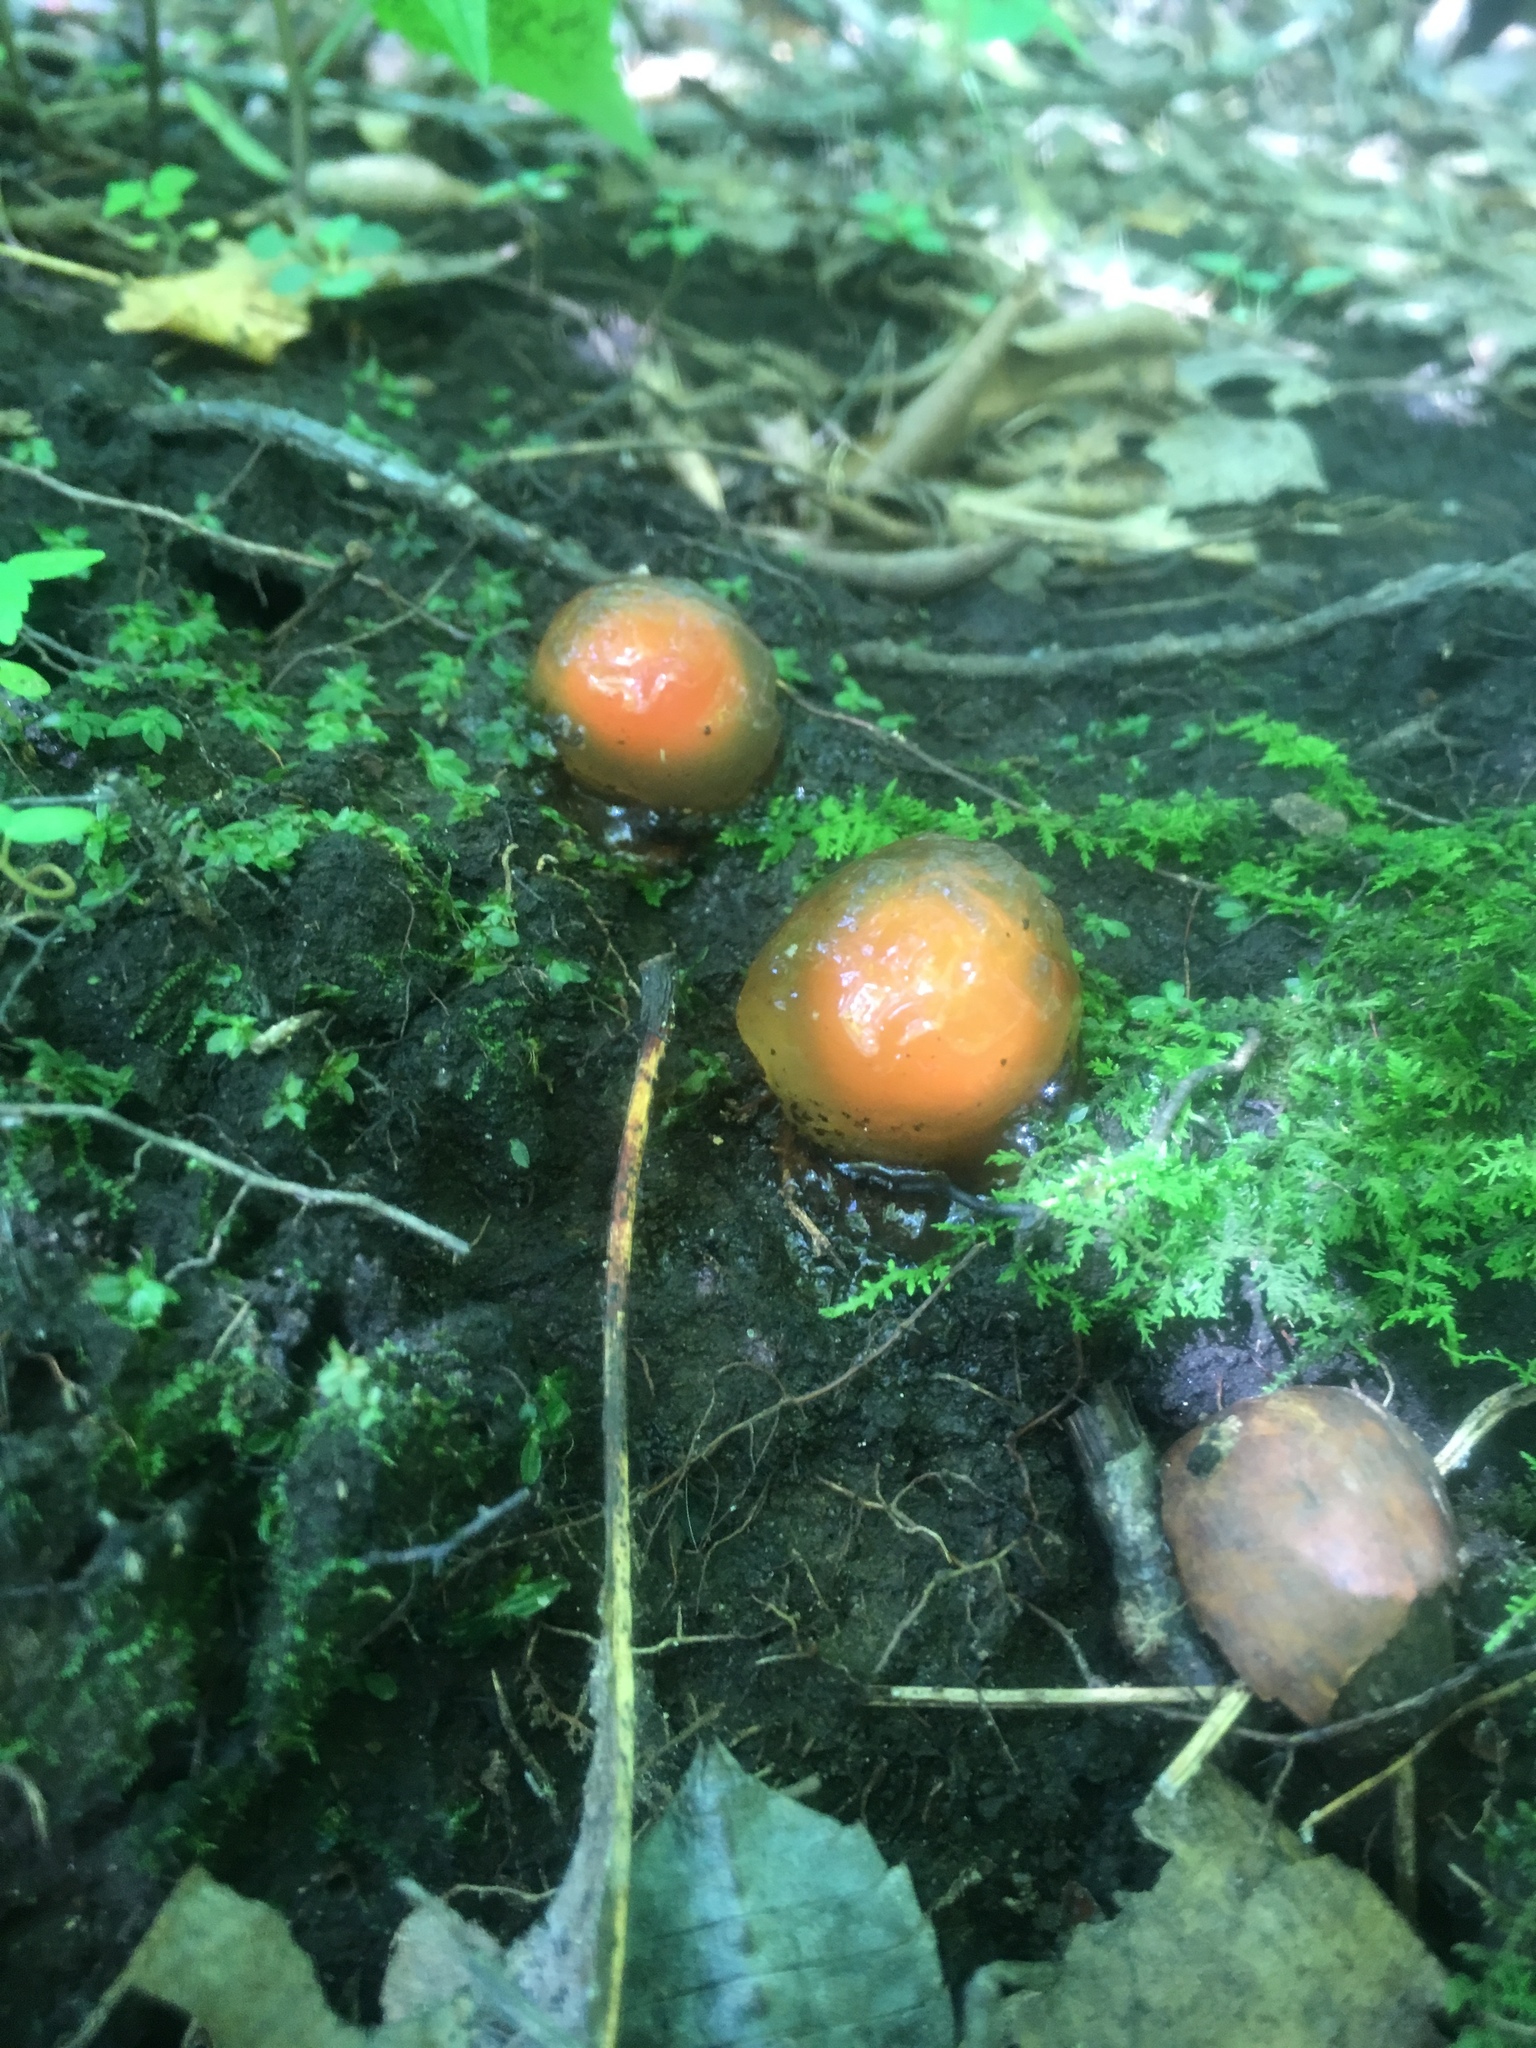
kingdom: Fungi
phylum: Basidiomycota
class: Agaricomycetes
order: Boletales
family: Calostomataceae
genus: Calostoma
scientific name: Calostoma cinnabarinum
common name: Stalked puffball-in-aspic
